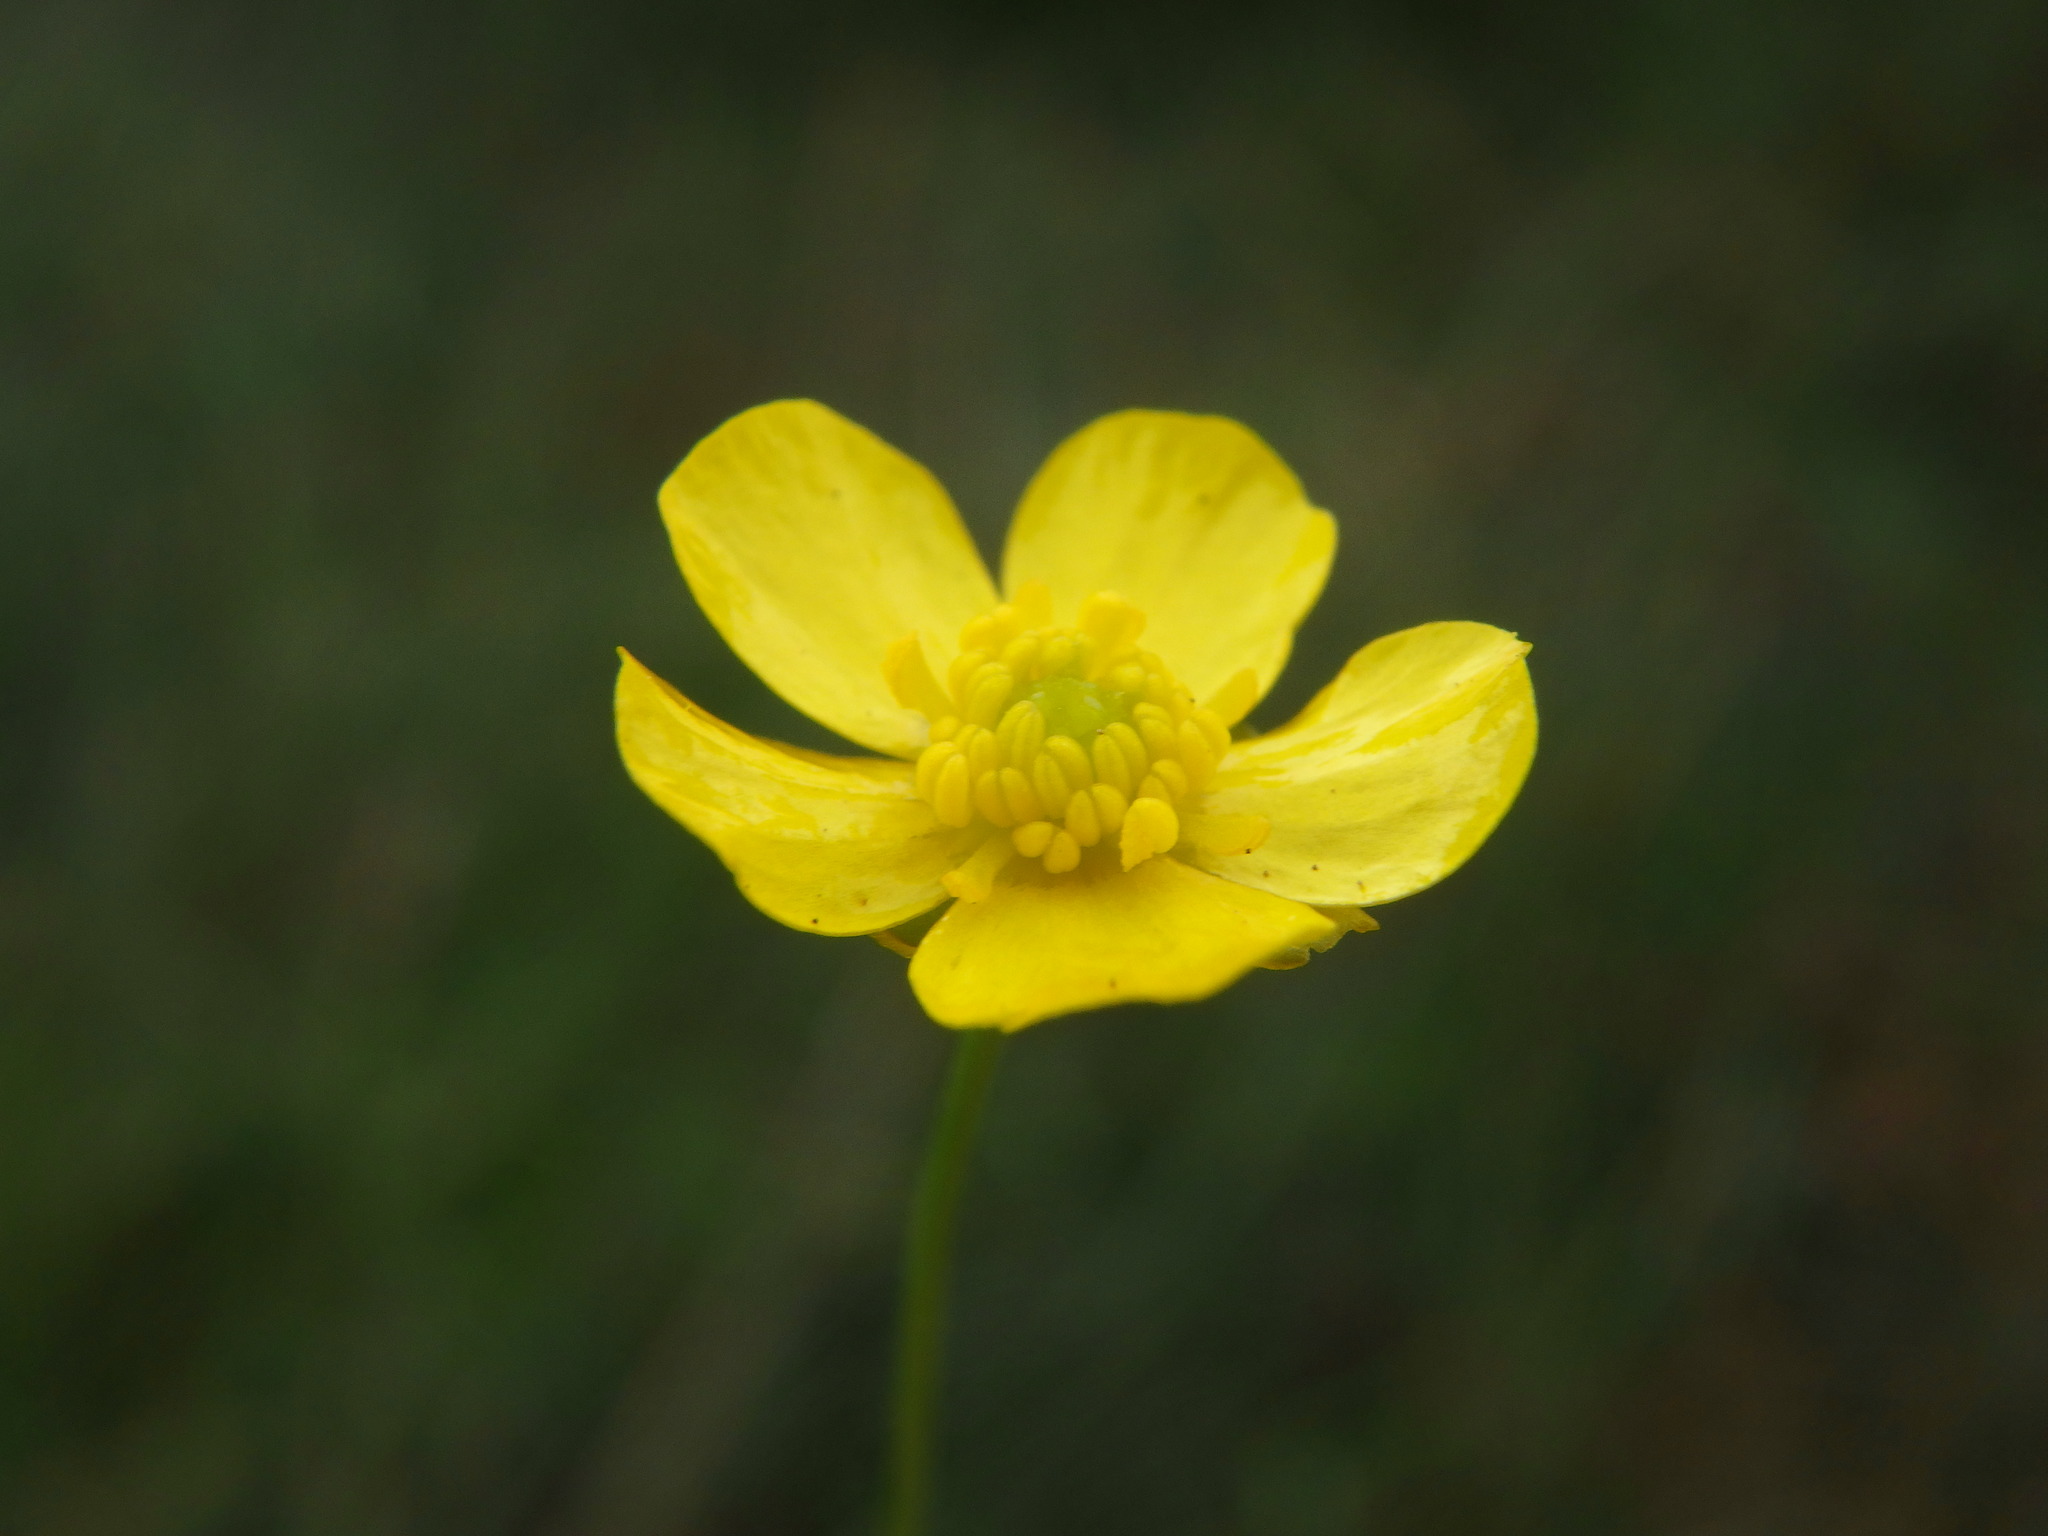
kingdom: Plantae
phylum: Tracheophyta
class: Magnoliopsida
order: Ranunculales
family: Ranunculaceae
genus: Ranunculus
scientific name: Ranunculus flammula
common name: Lesser spearwort
